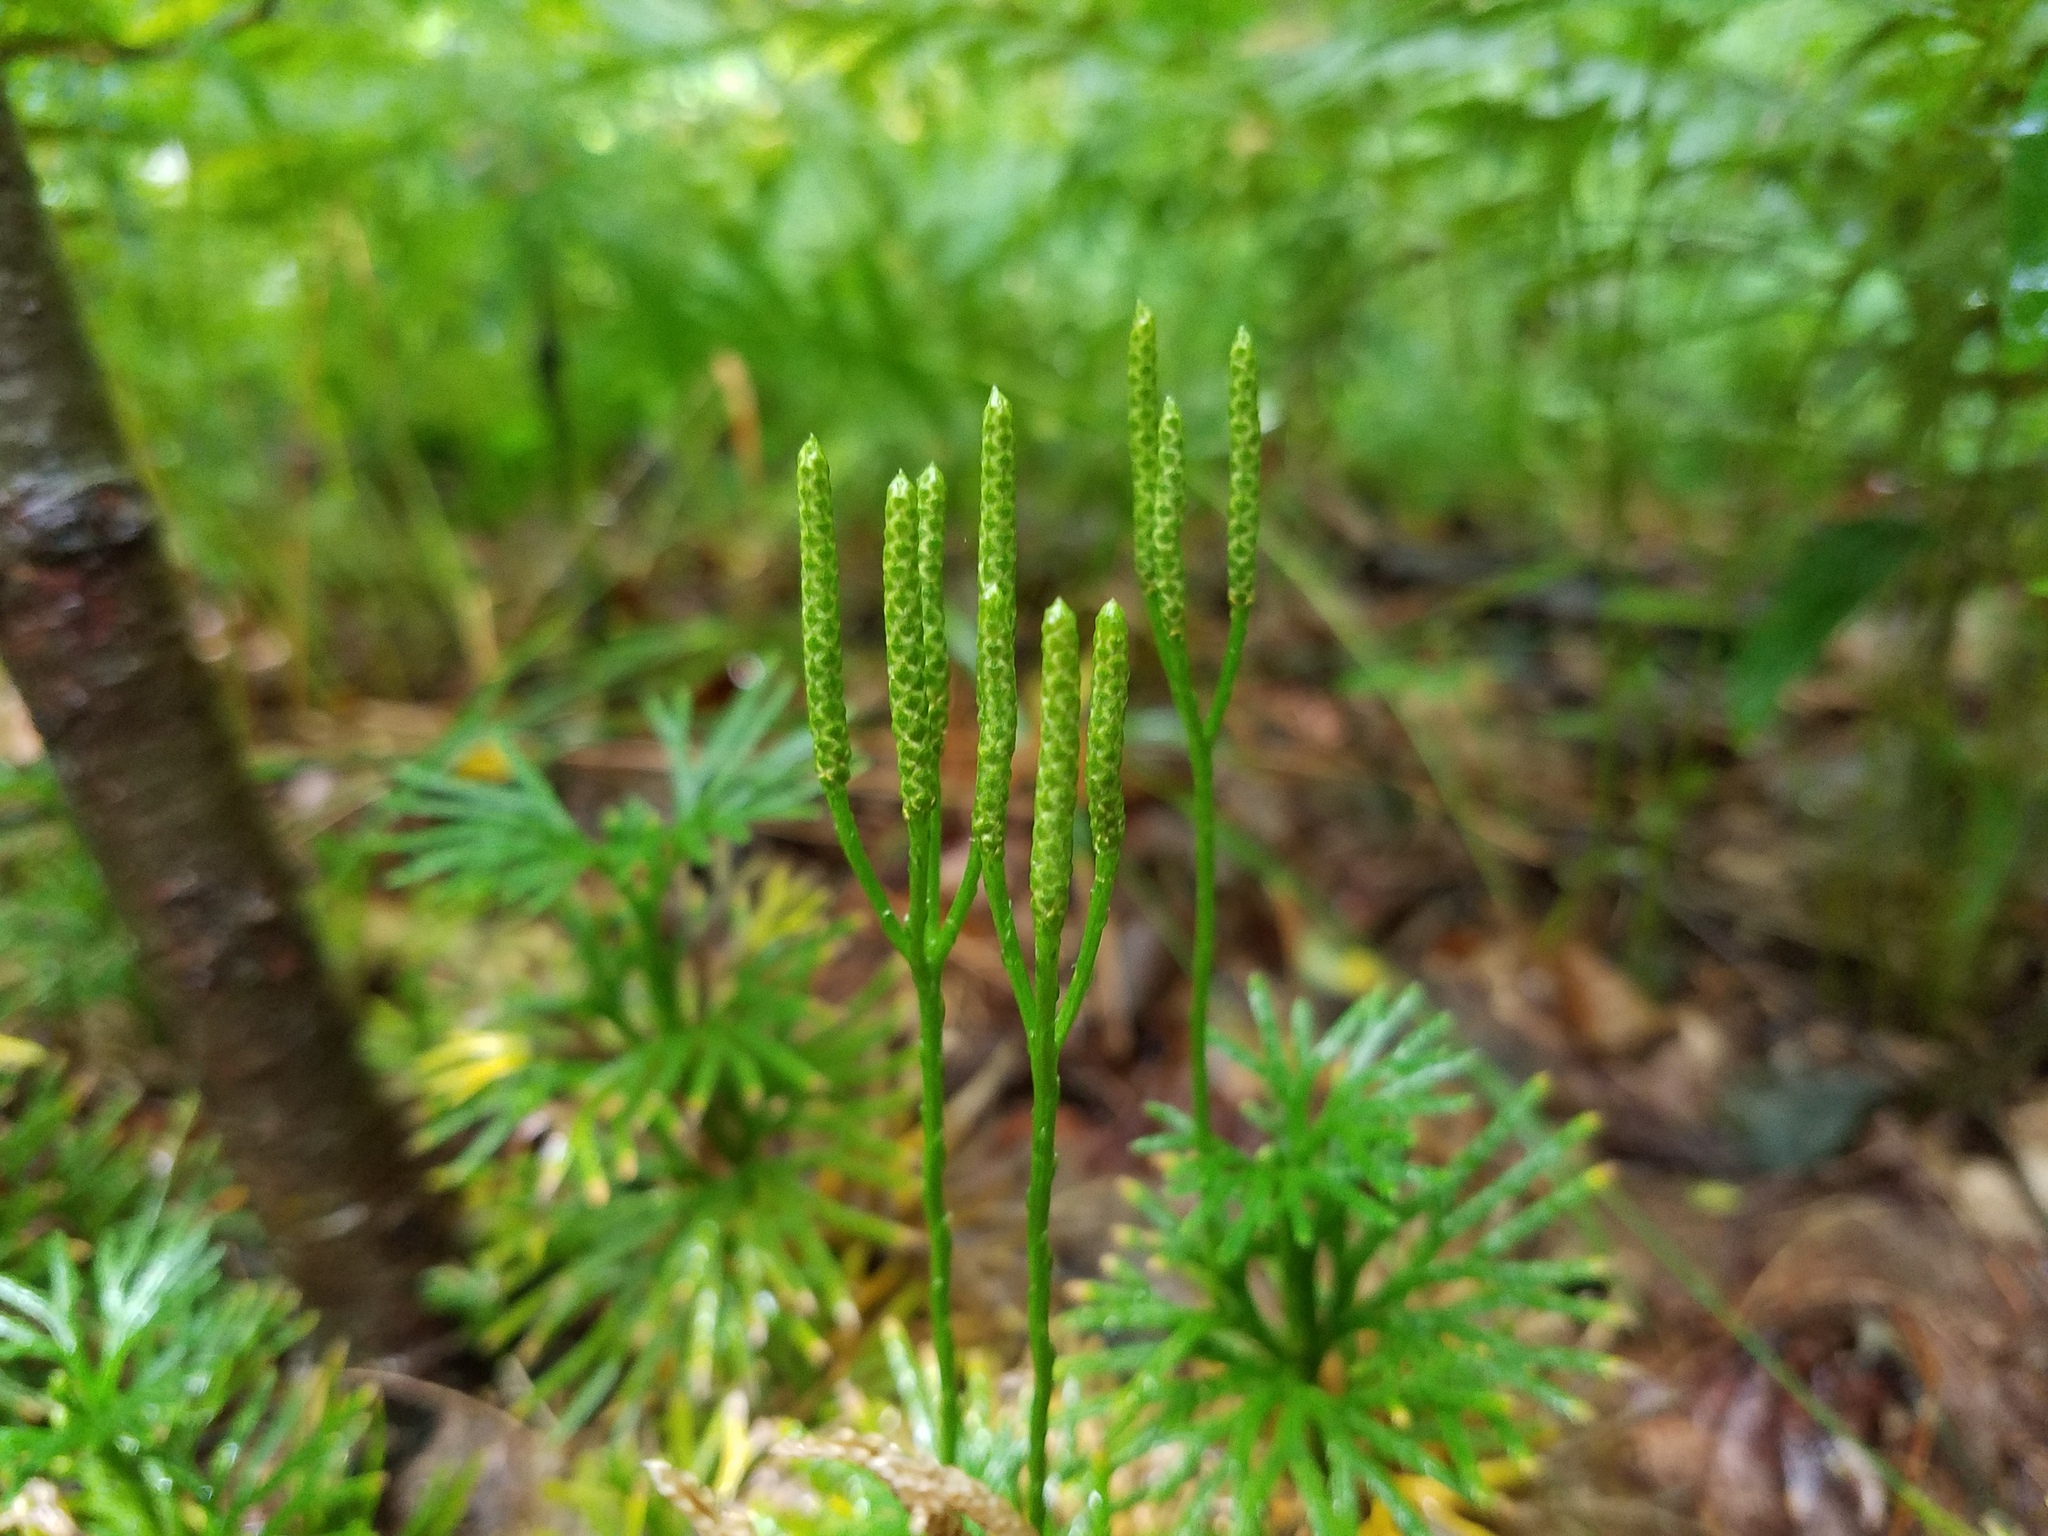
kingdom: Plantae
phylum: Tracheophyta
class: Lycopodiopsida
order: Lycopodiales
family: Lycopodiaceae
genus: Diphasiastrum
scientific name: Diphasiastrum digitatum
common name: Southern running-pine
